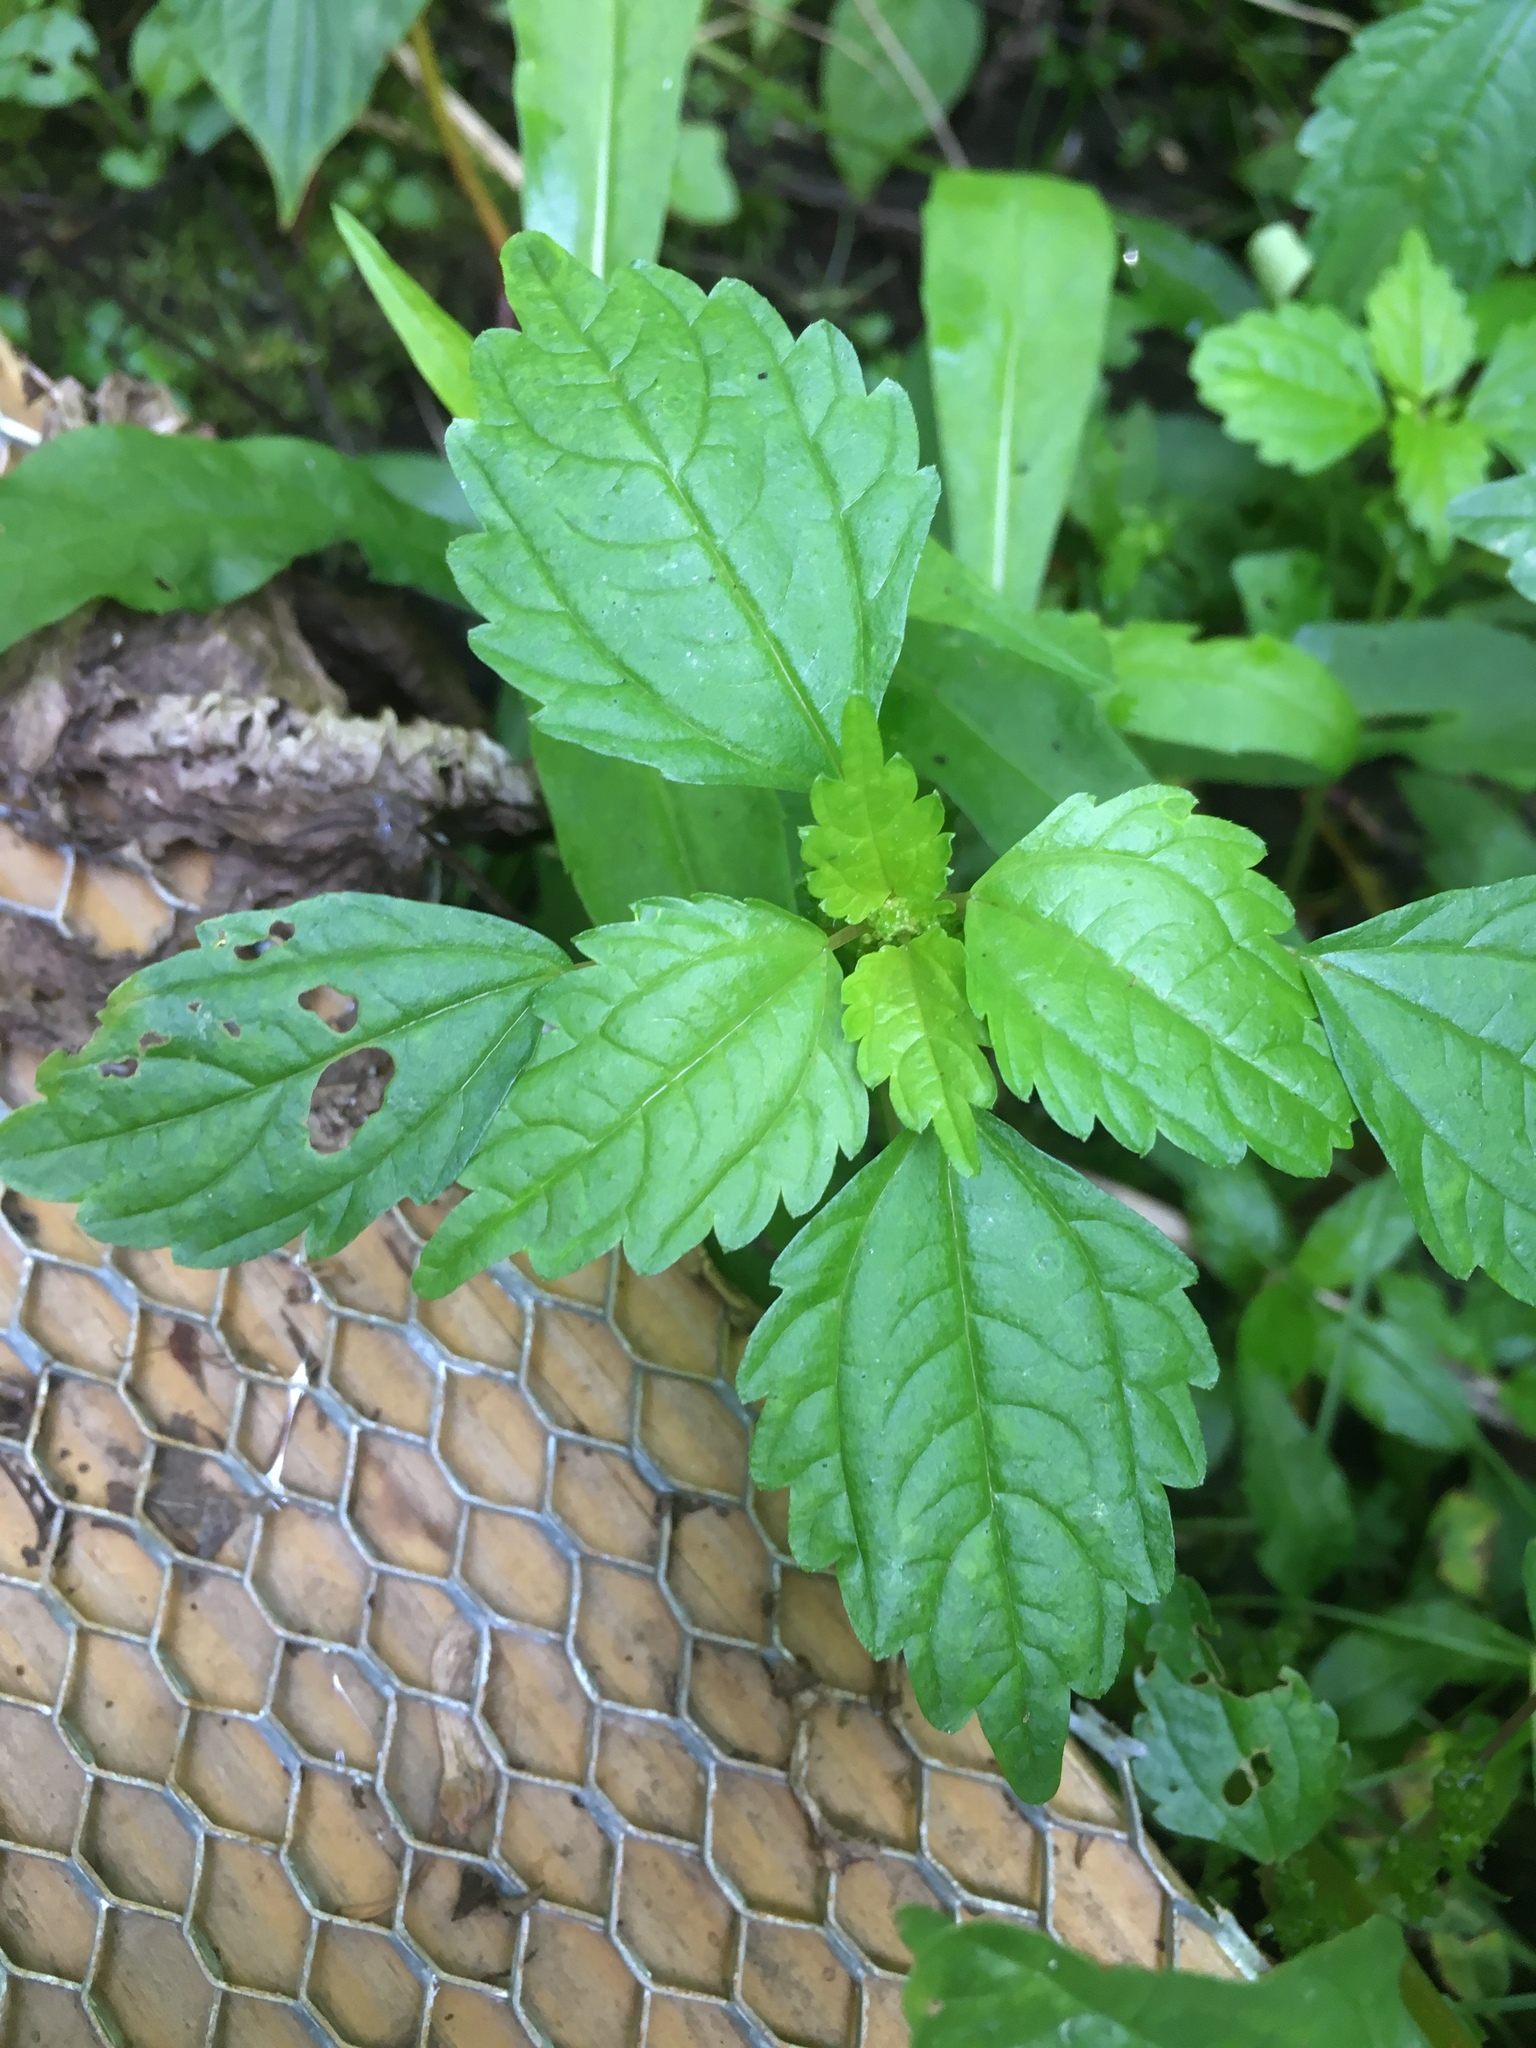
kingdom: Plantae
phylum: Tracheophyta
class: Magnoliopsida
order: Rosales
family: Urticaceae
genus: Pilea
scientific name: Pilea pumila
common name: Clearweed
